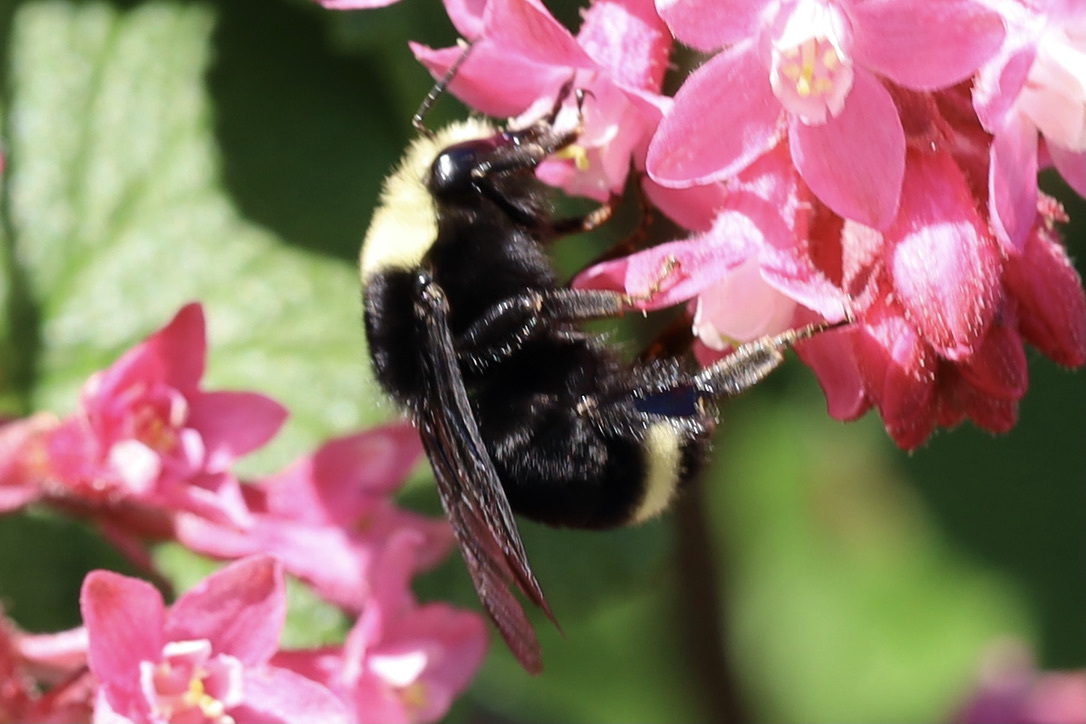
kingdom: Animalia
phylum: Arthropoda
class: Insecta
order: Hymenoptera
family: Apidae
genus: Bombus
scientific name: Bombus vosnesenskii
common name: Vosnesensky bumble bee
